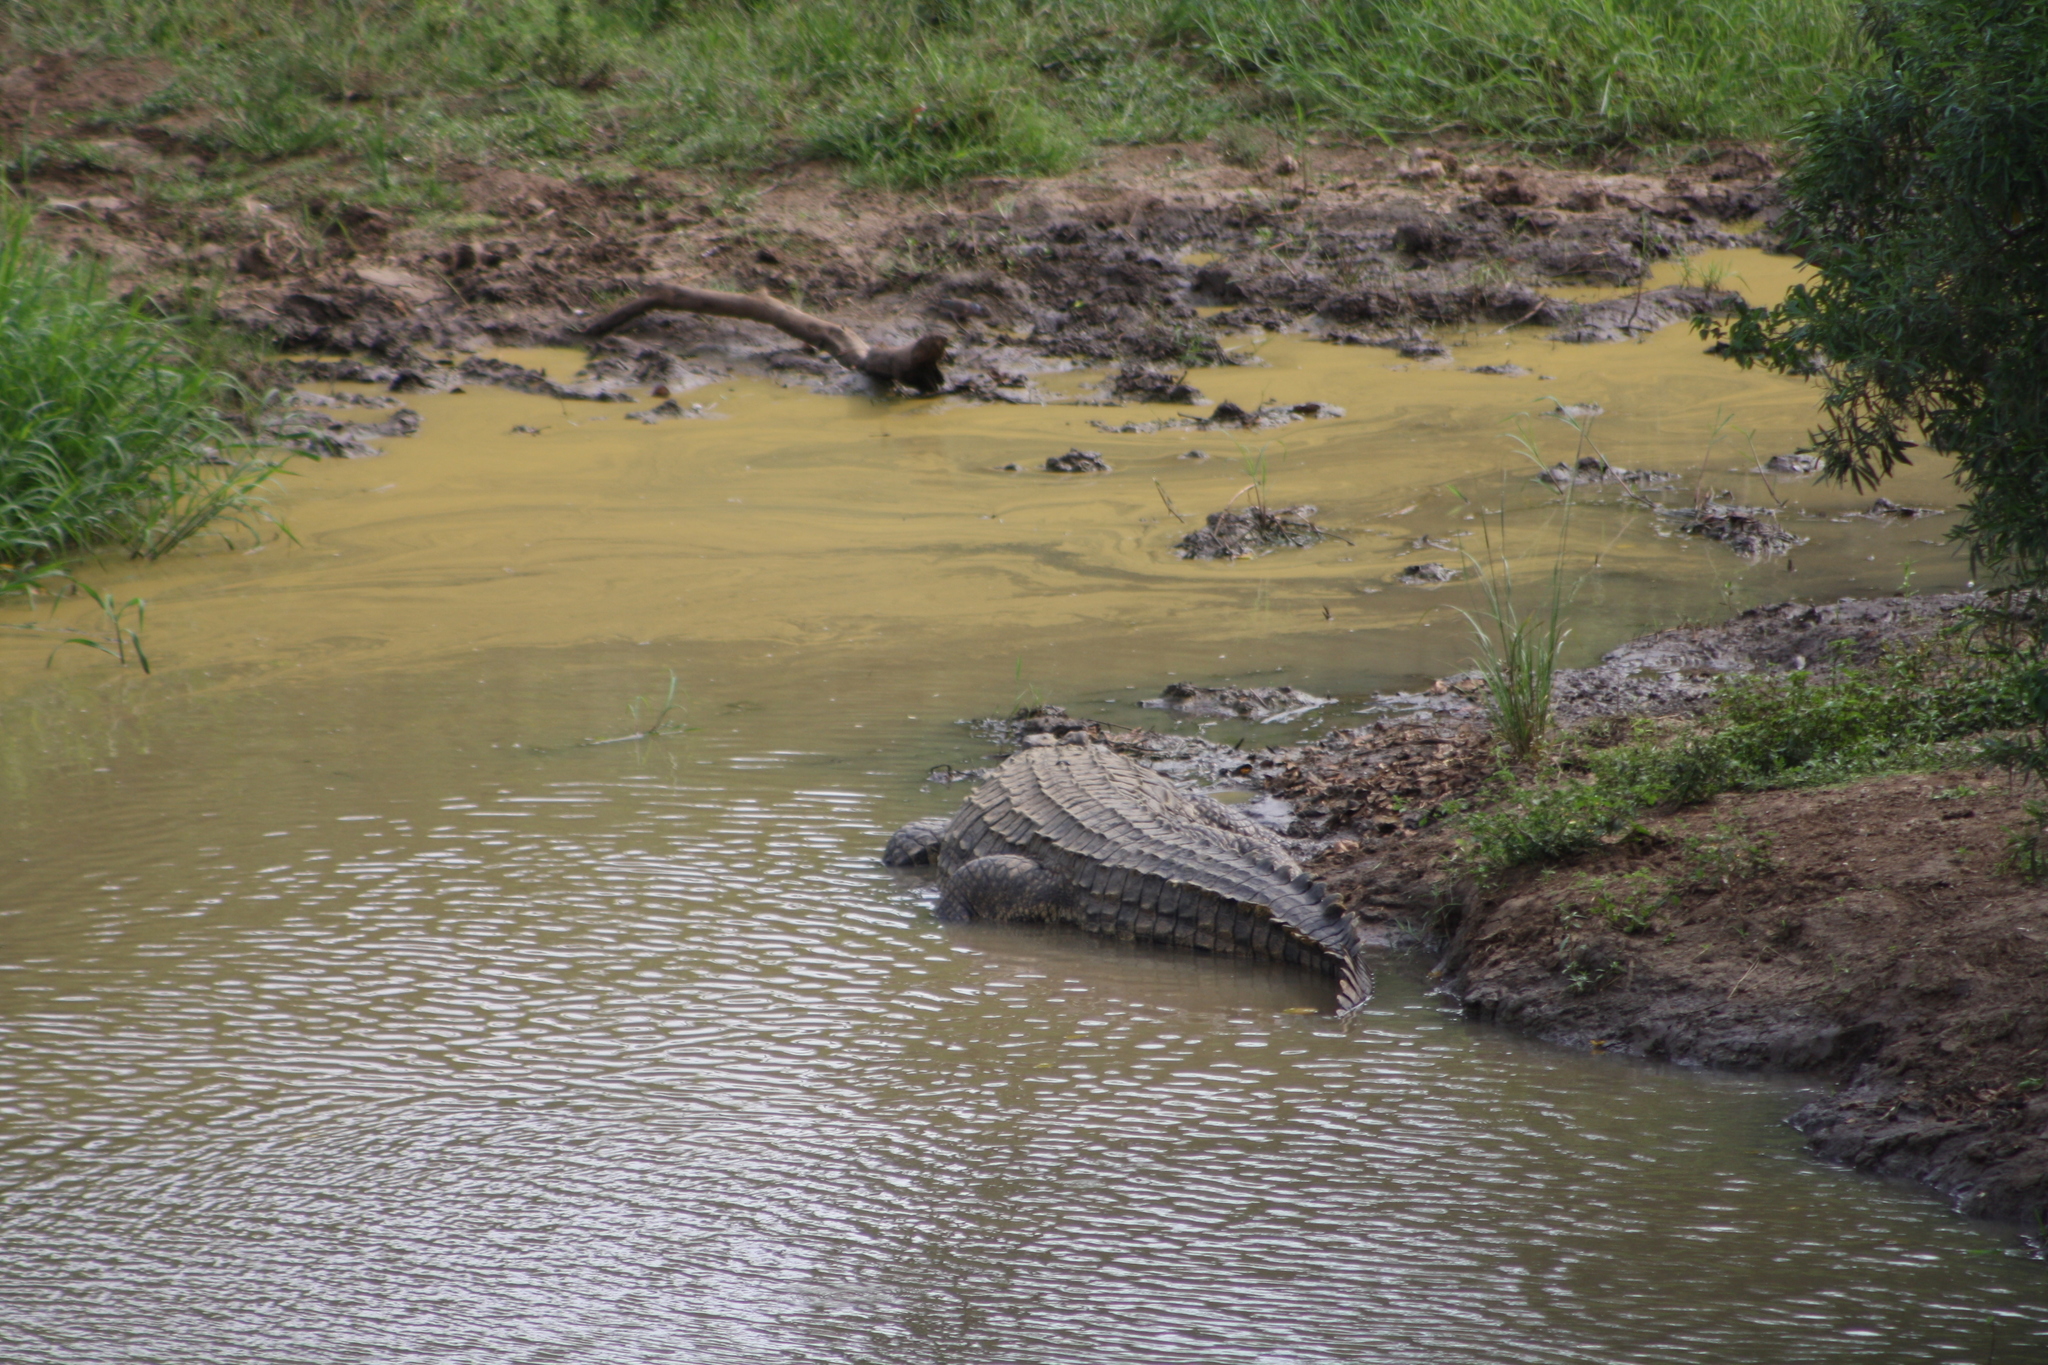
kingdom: Animalia
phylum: Chordata
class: Crocodylia
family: Crocodylidae
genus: Crocodylus
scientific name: Crocodylus niloticus
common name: Nile crocodile
